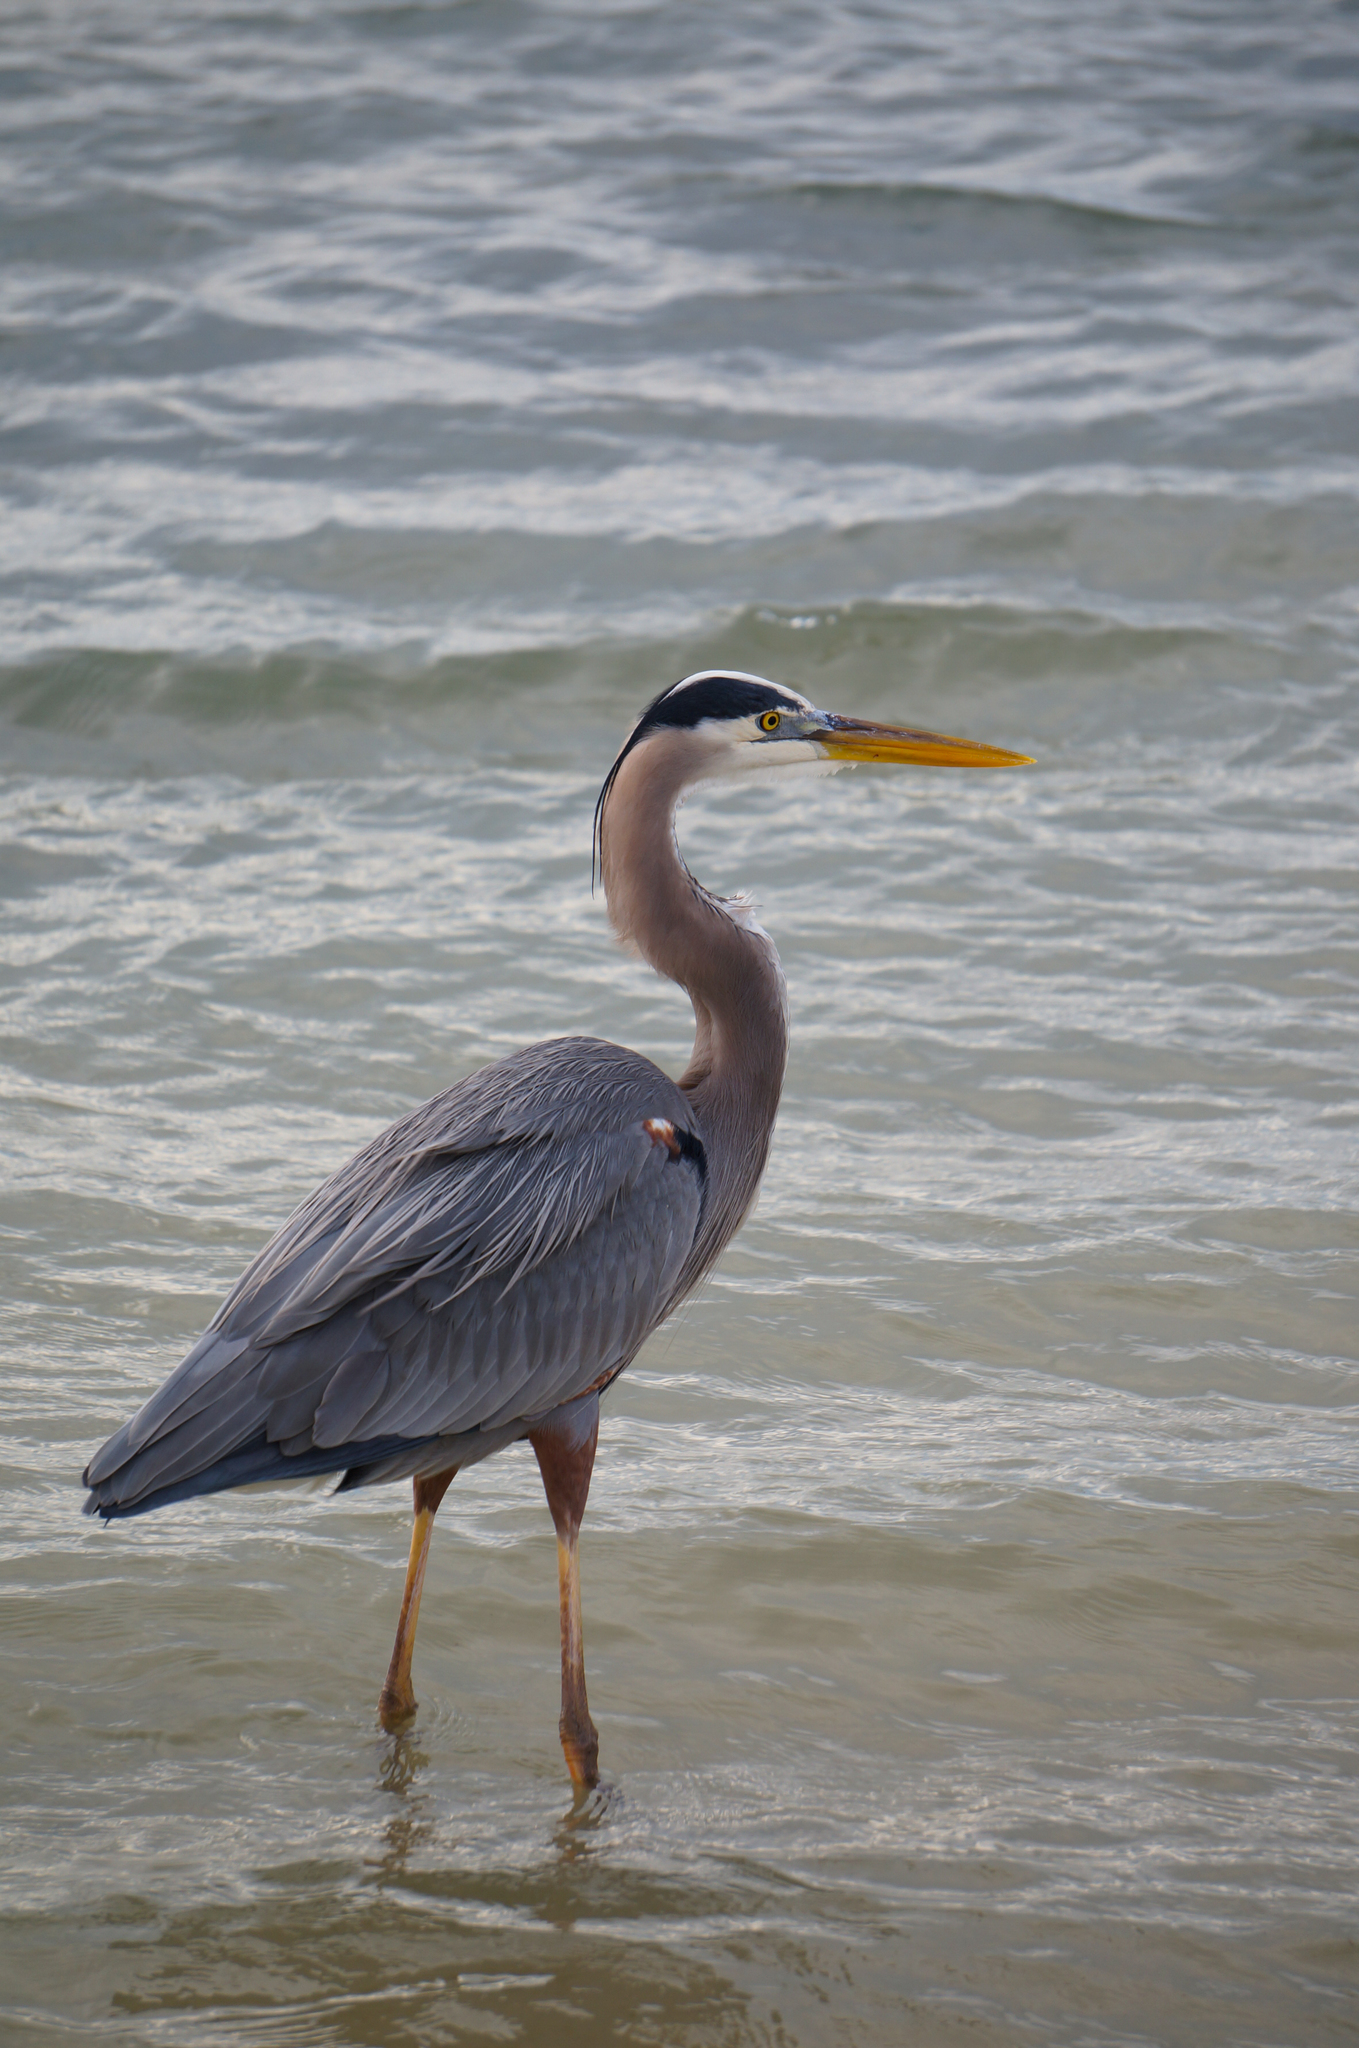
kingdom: Animalia
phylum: Chordata
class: Aves
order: Pelecaniformes
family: Ardeidae
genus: Ardea
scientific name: Ardea herodias
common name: Great blue heron
